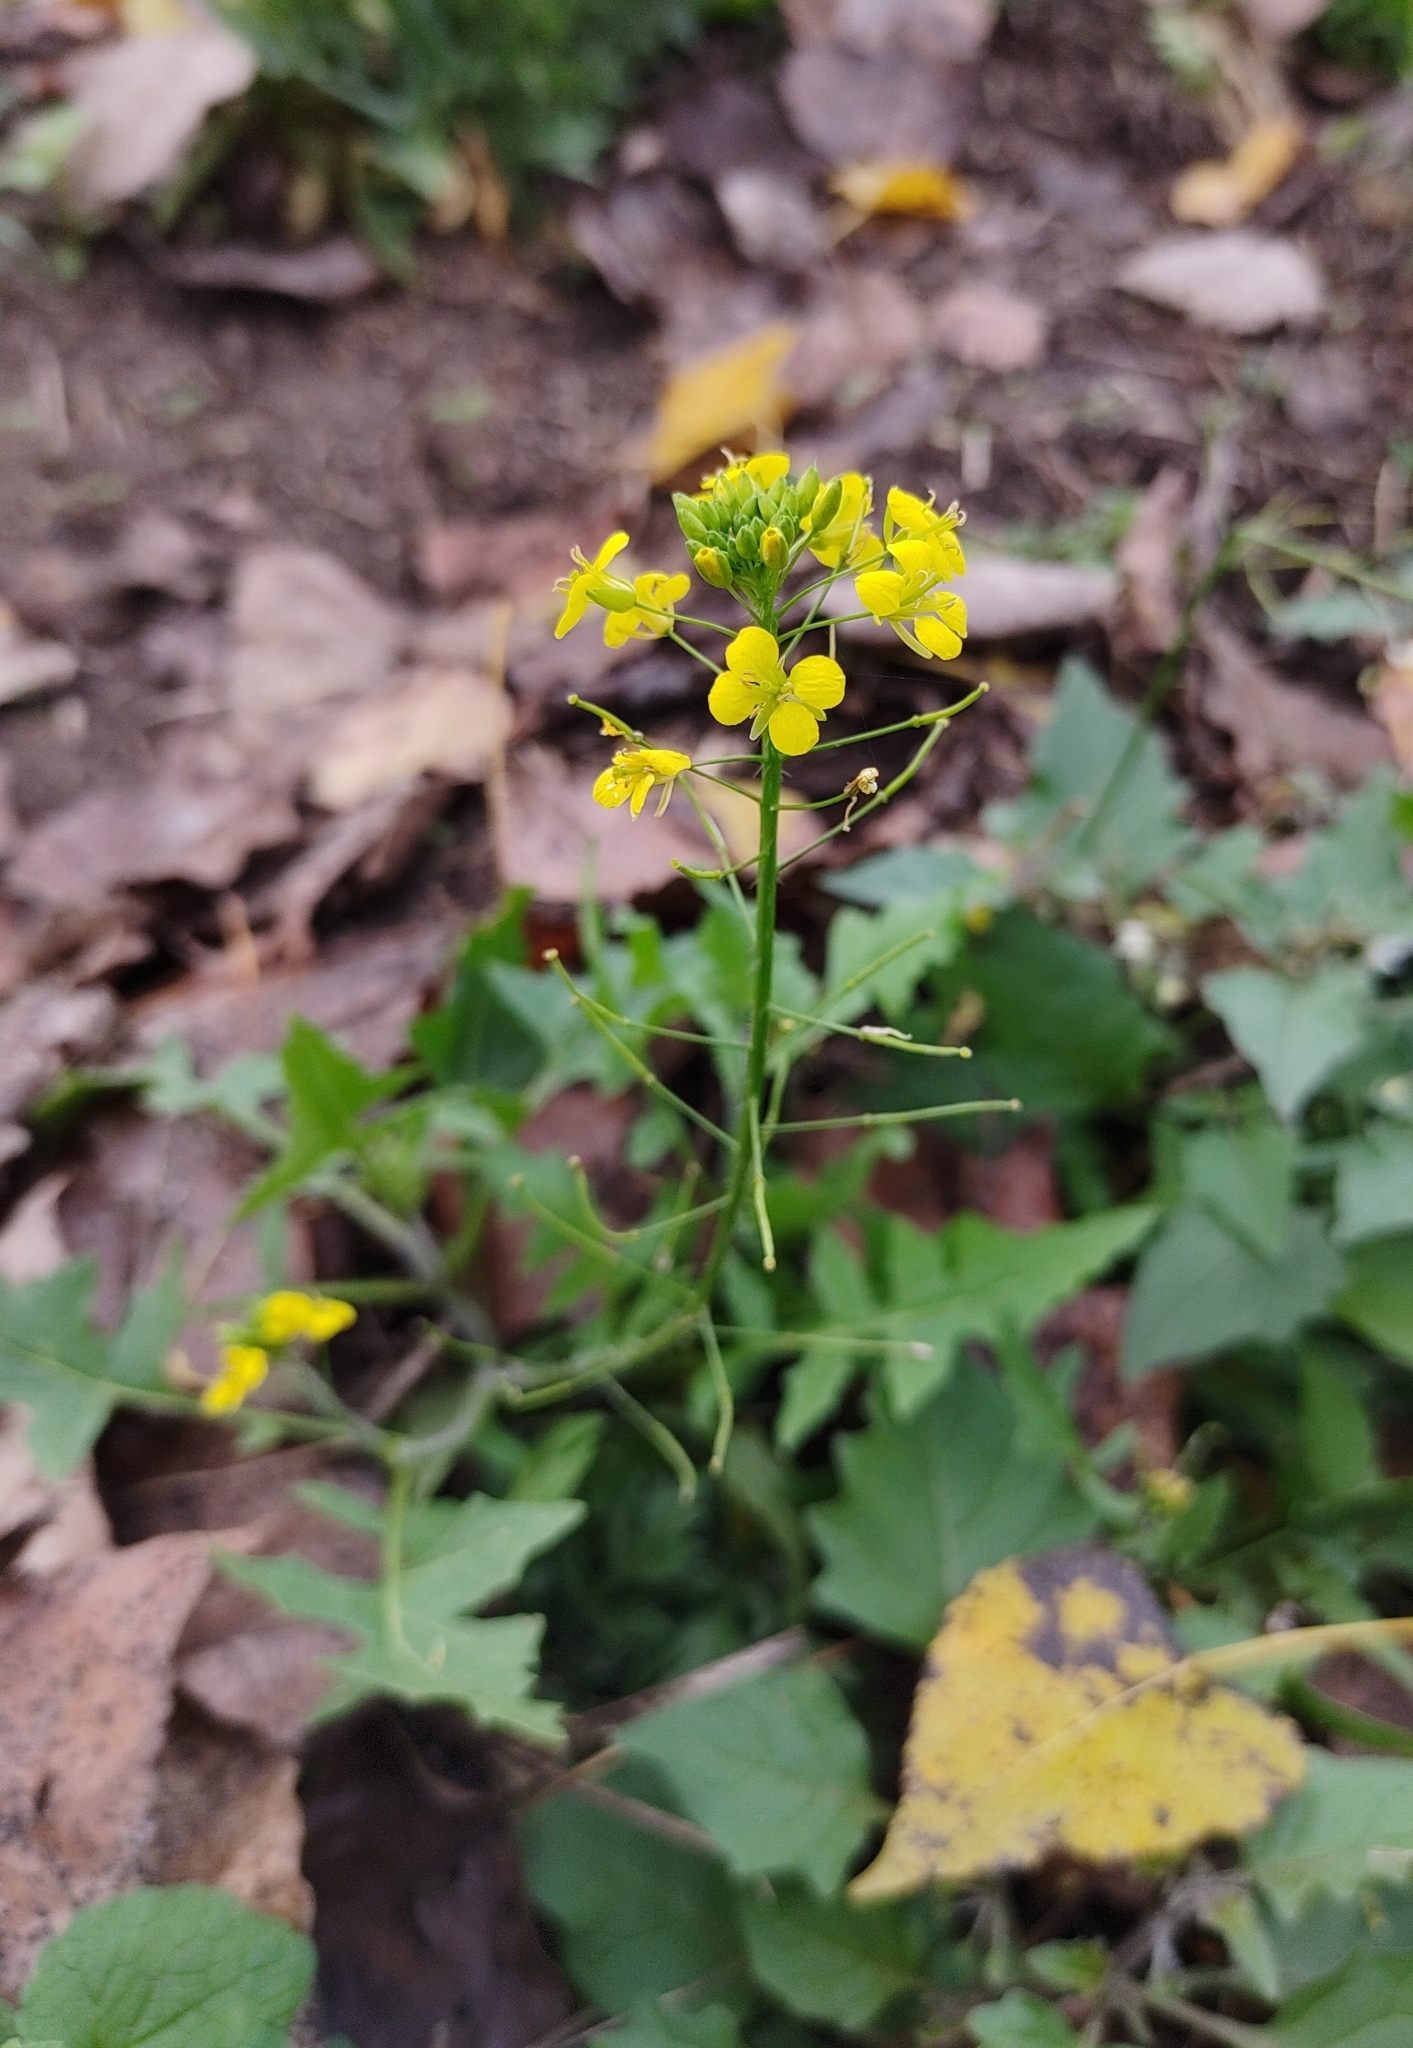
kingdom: Plantae
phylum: Tracheophyta
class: Magnoliopsida
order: Brassicales
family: Brassicaceae
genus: Sisymbrium
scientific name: Sisymbrium loeselii
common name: False london-rocket
